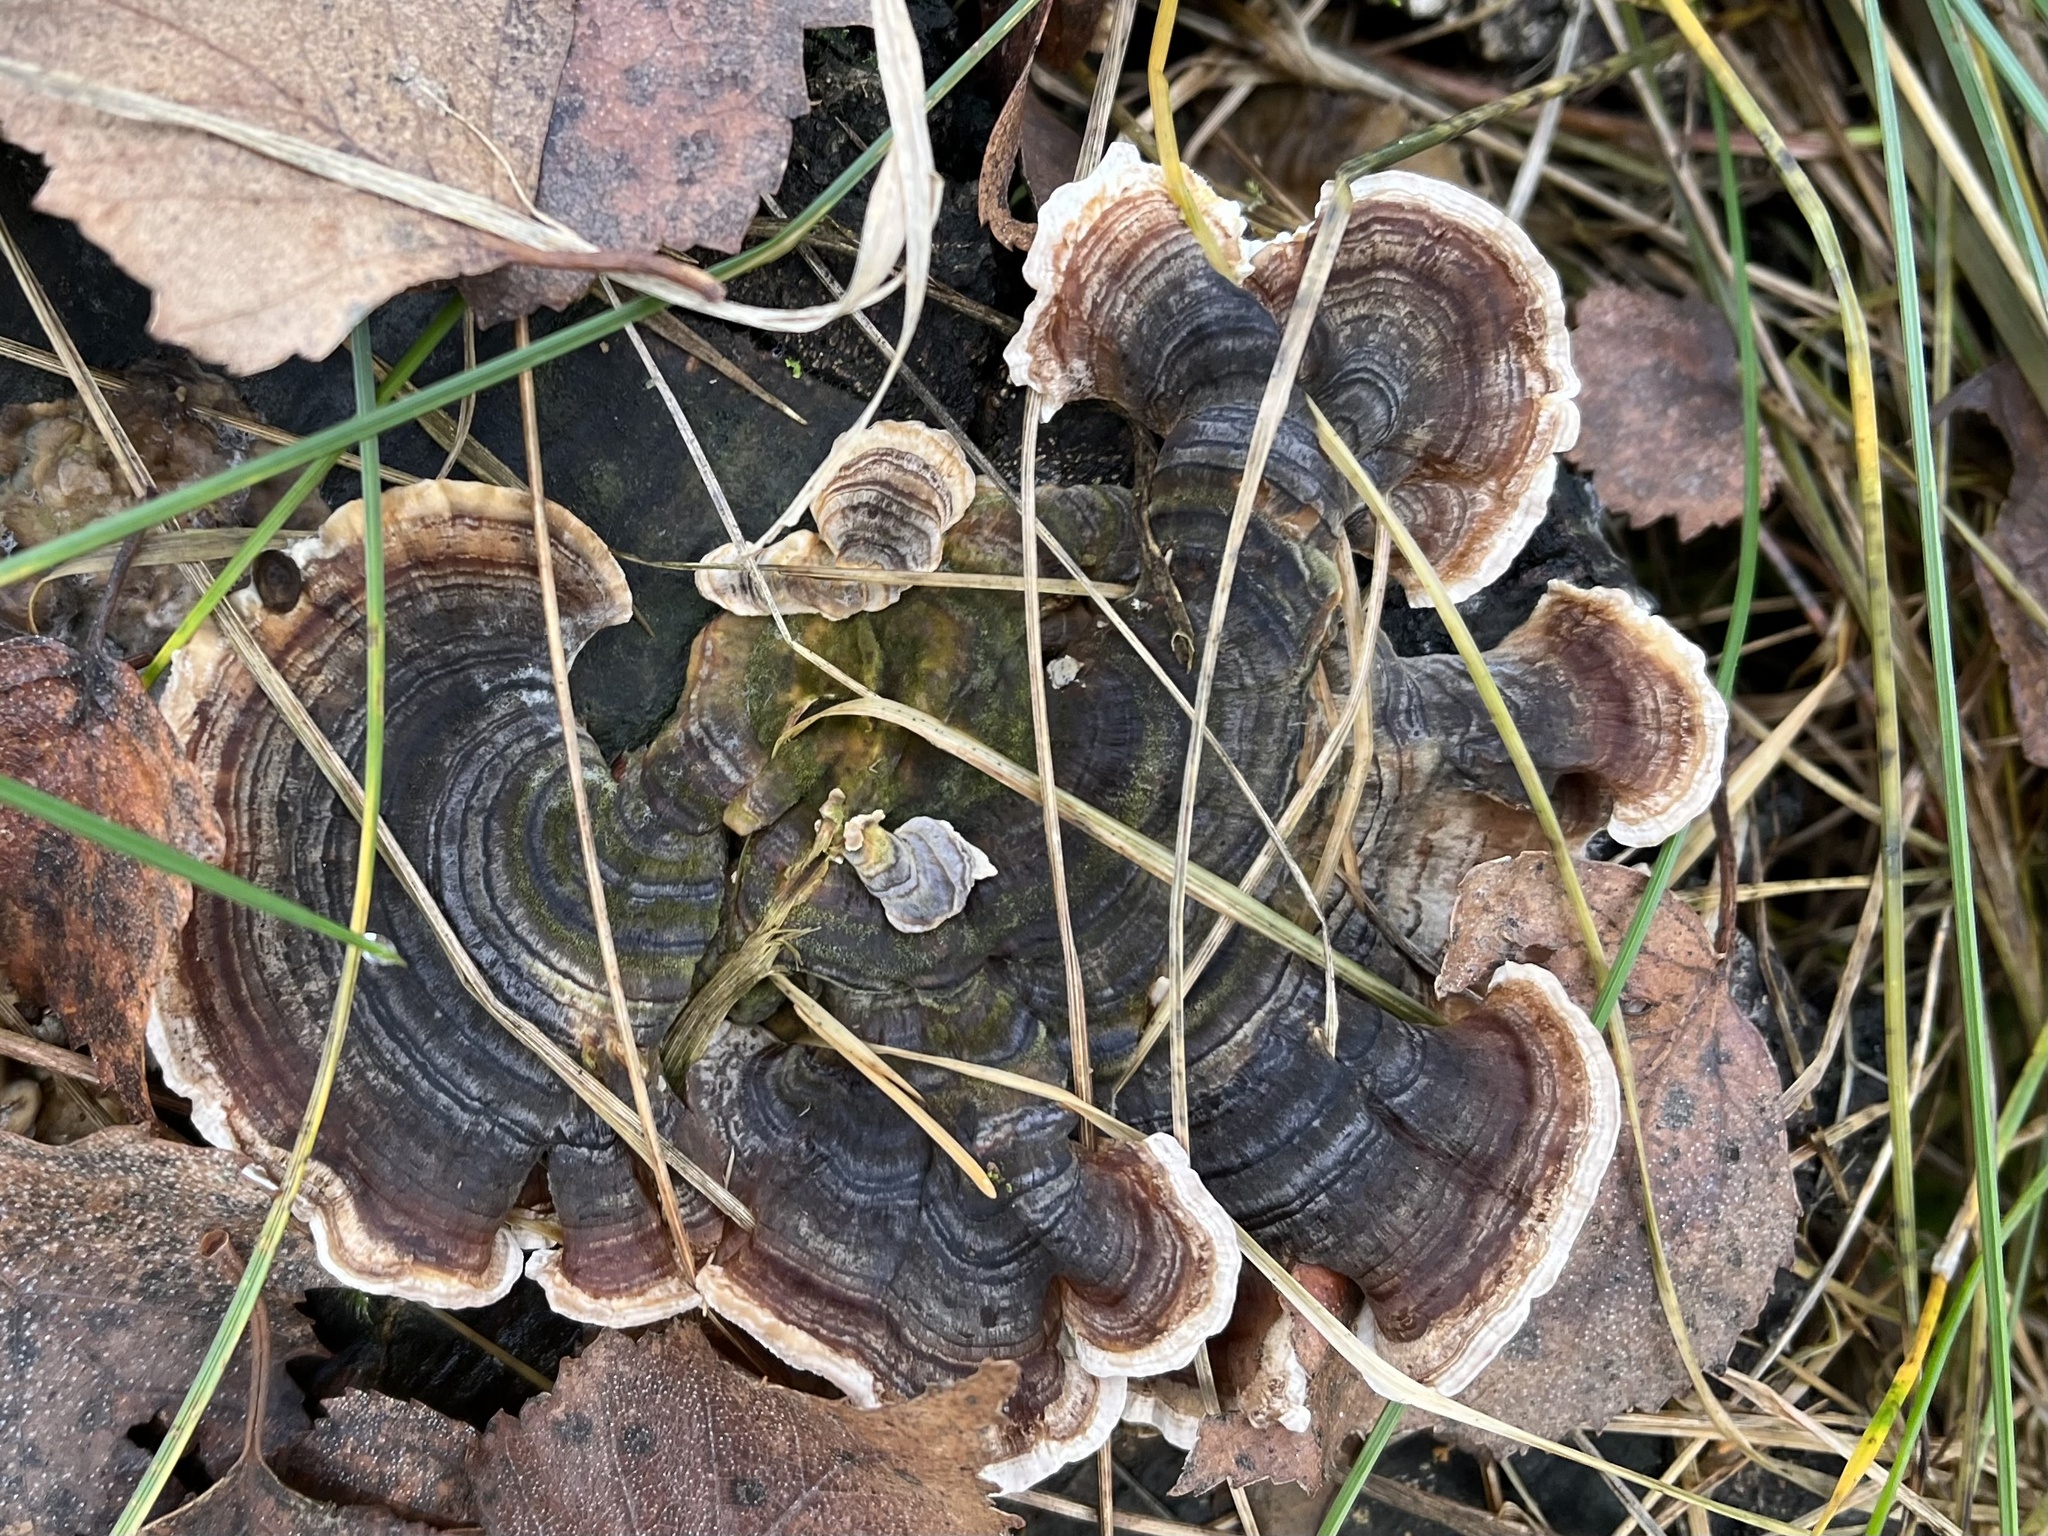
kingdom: Fungi
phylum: Basidiomycota
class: Agaricomycetes
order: Polyporales
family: Polyporaceae
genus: Trametes
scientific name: Trametes versicolor
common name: Turkeytail
